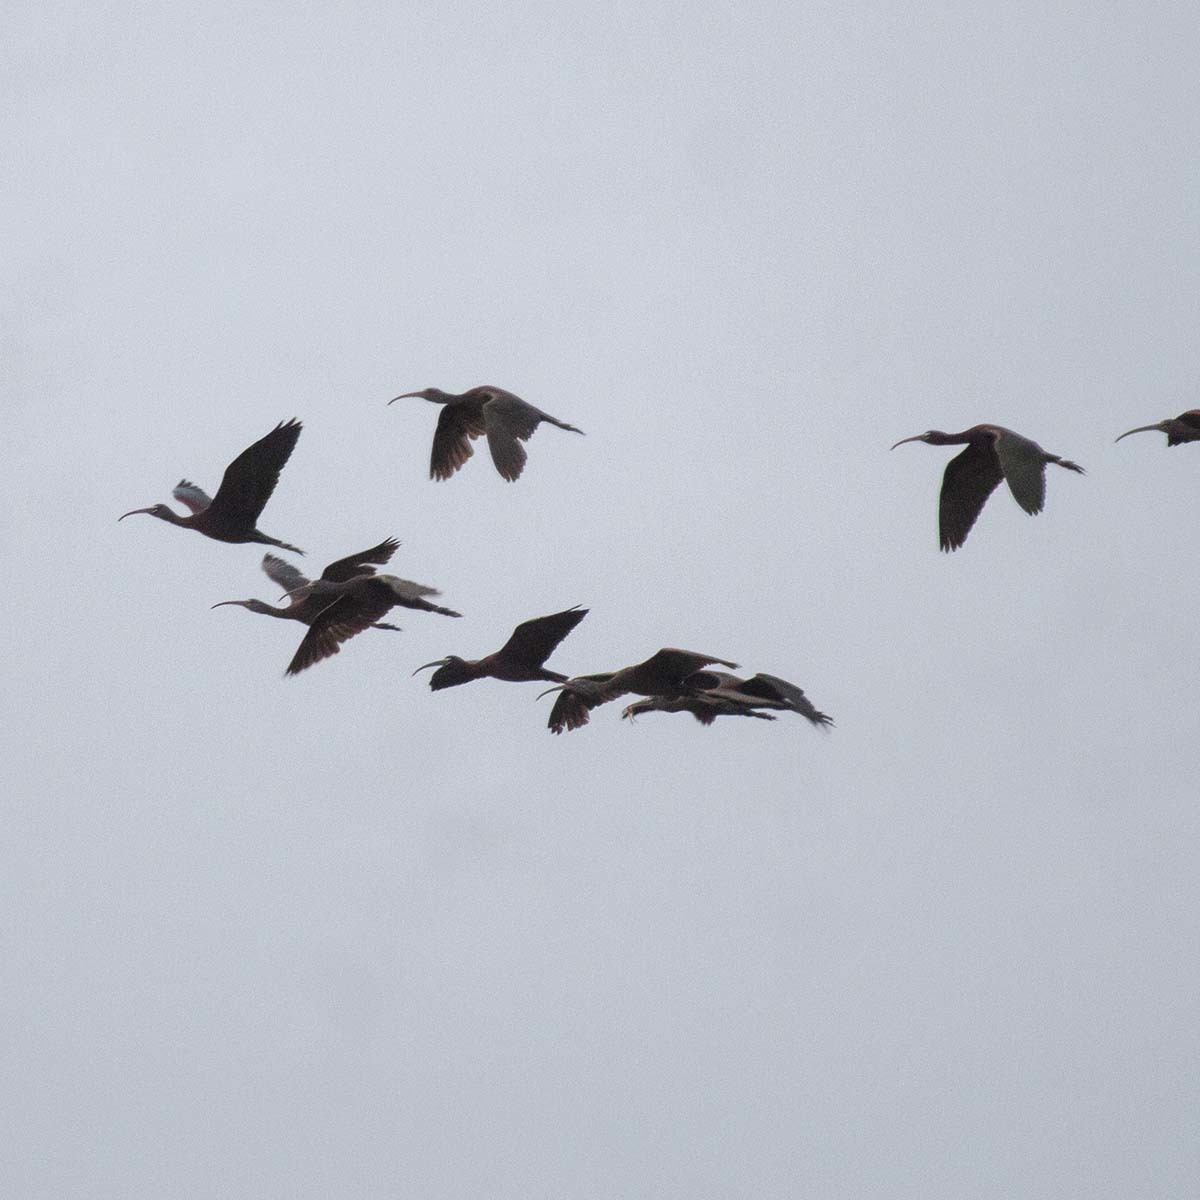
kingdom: Animalia
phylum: Chordata
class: Aves
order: Pelecaniformes
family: Threskiornithidae
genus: Plegadis
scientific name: Plegadis falcinellus
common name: Glossy ibis
